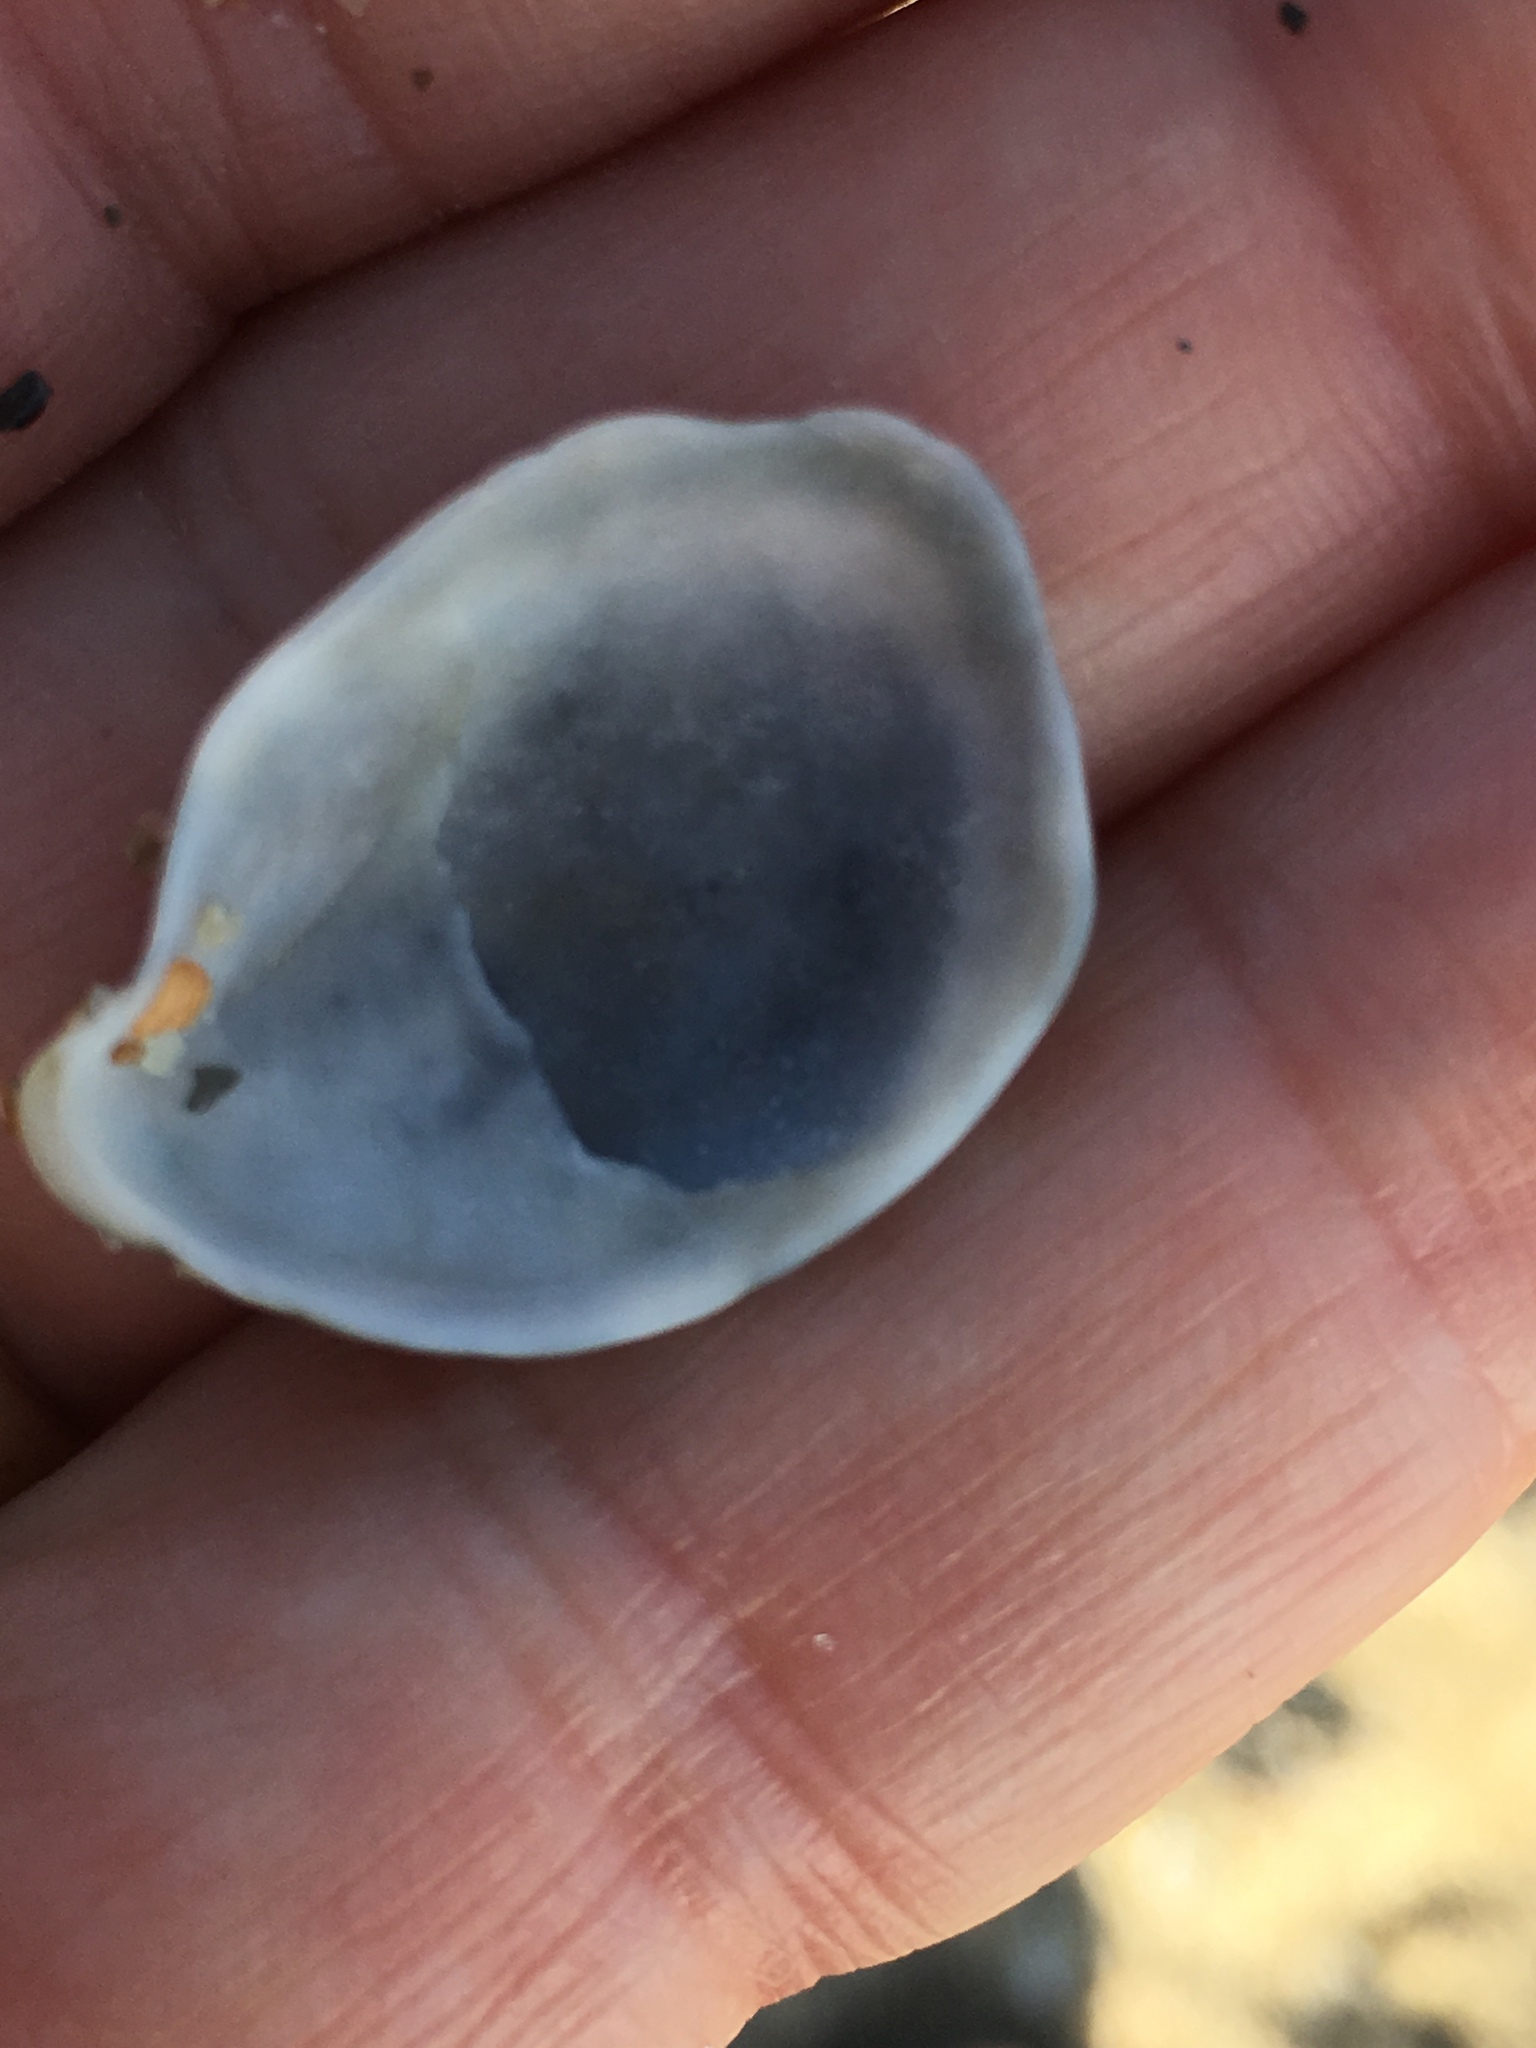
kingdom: Animalia
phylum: Mollusca
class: Gastropoda
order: Littorinimorpha
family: Calyptraeidae
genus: Crepidula
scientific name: Crepidula fornicata
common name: Slipper limpet
